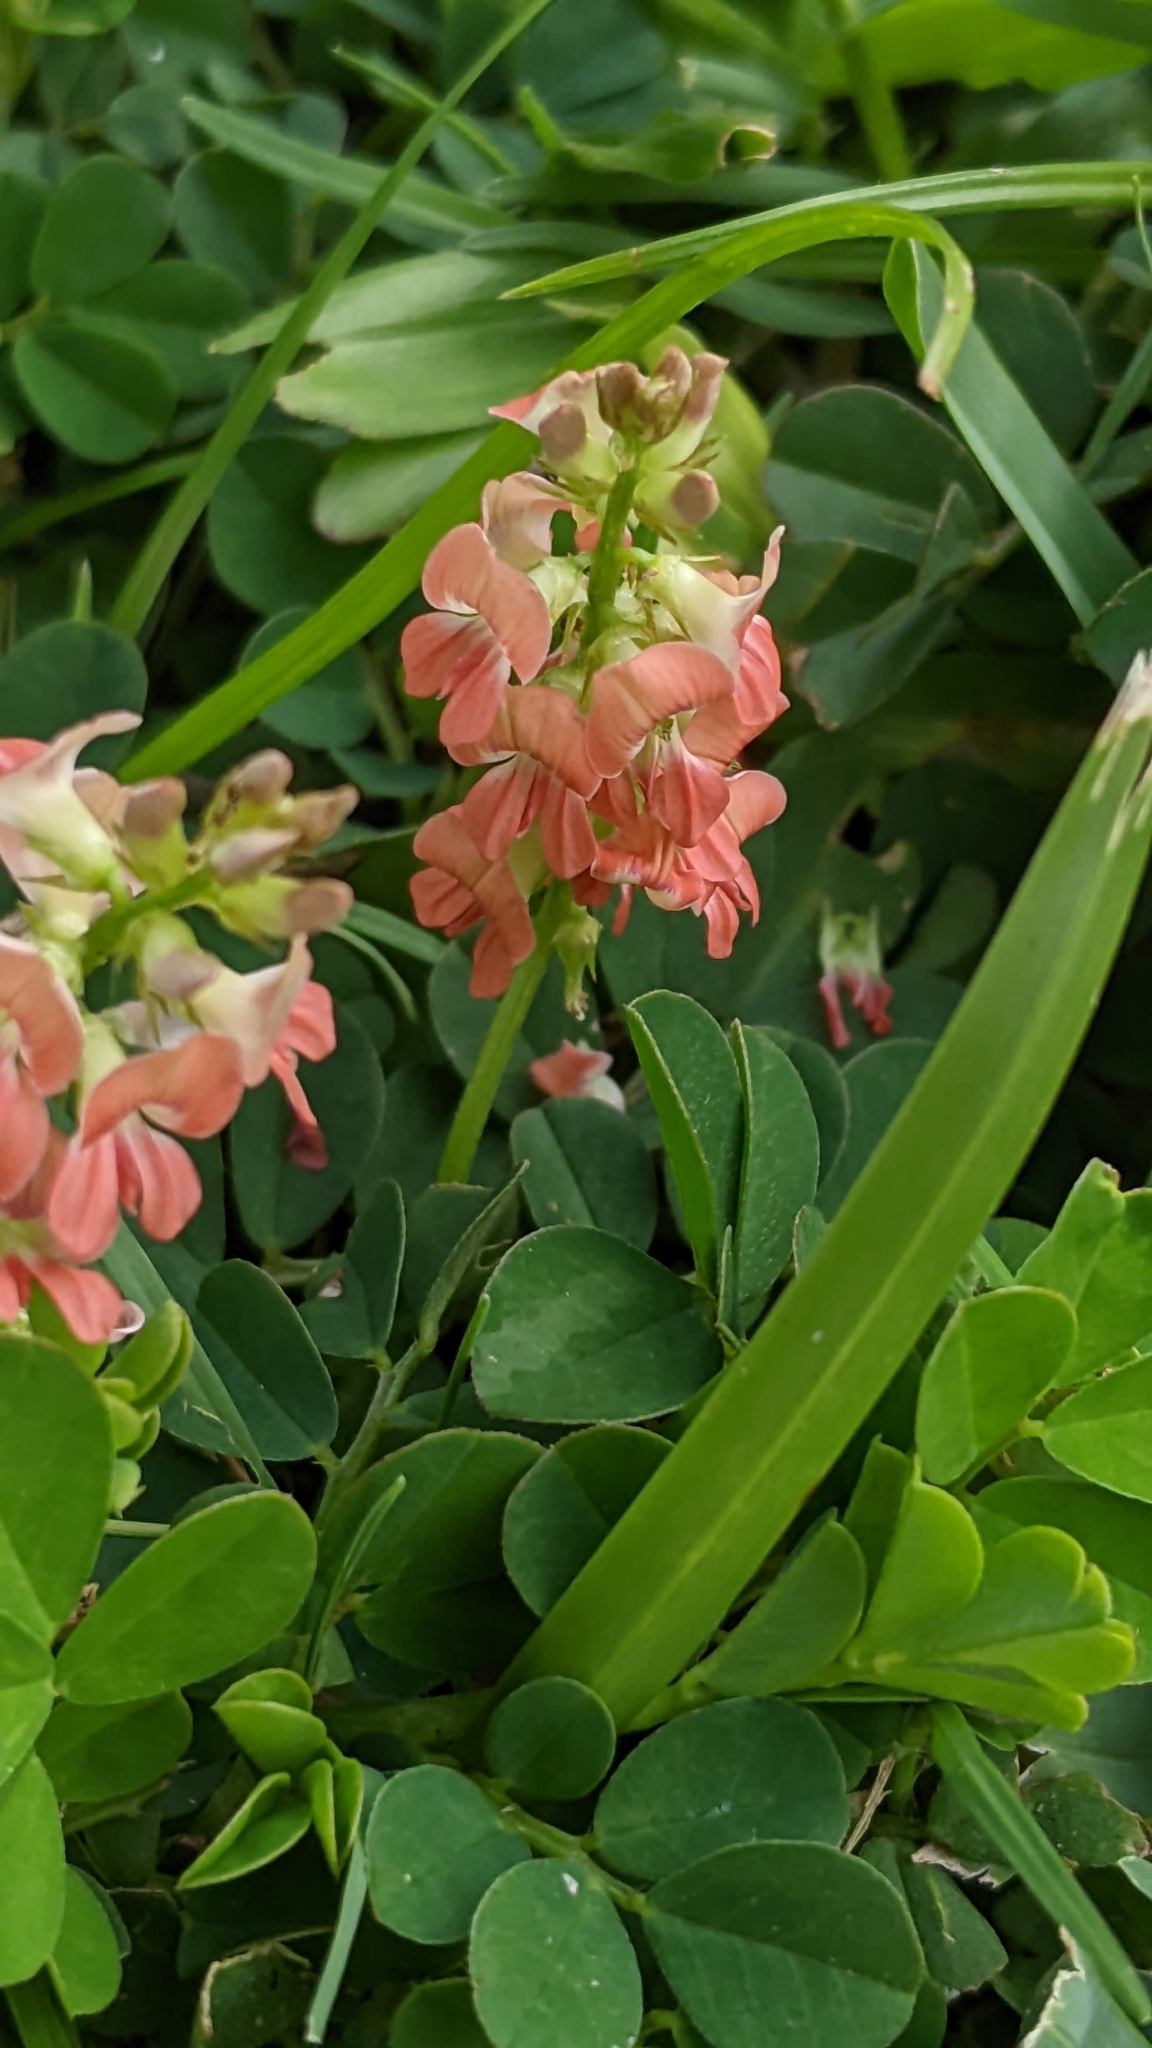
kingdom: Plantae
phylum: Tracheophyta
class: Magnoliopsida
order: Fabales
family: Fabaceae
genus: Indigofera
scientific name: Indigofera spicata
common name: Creeping indigo
